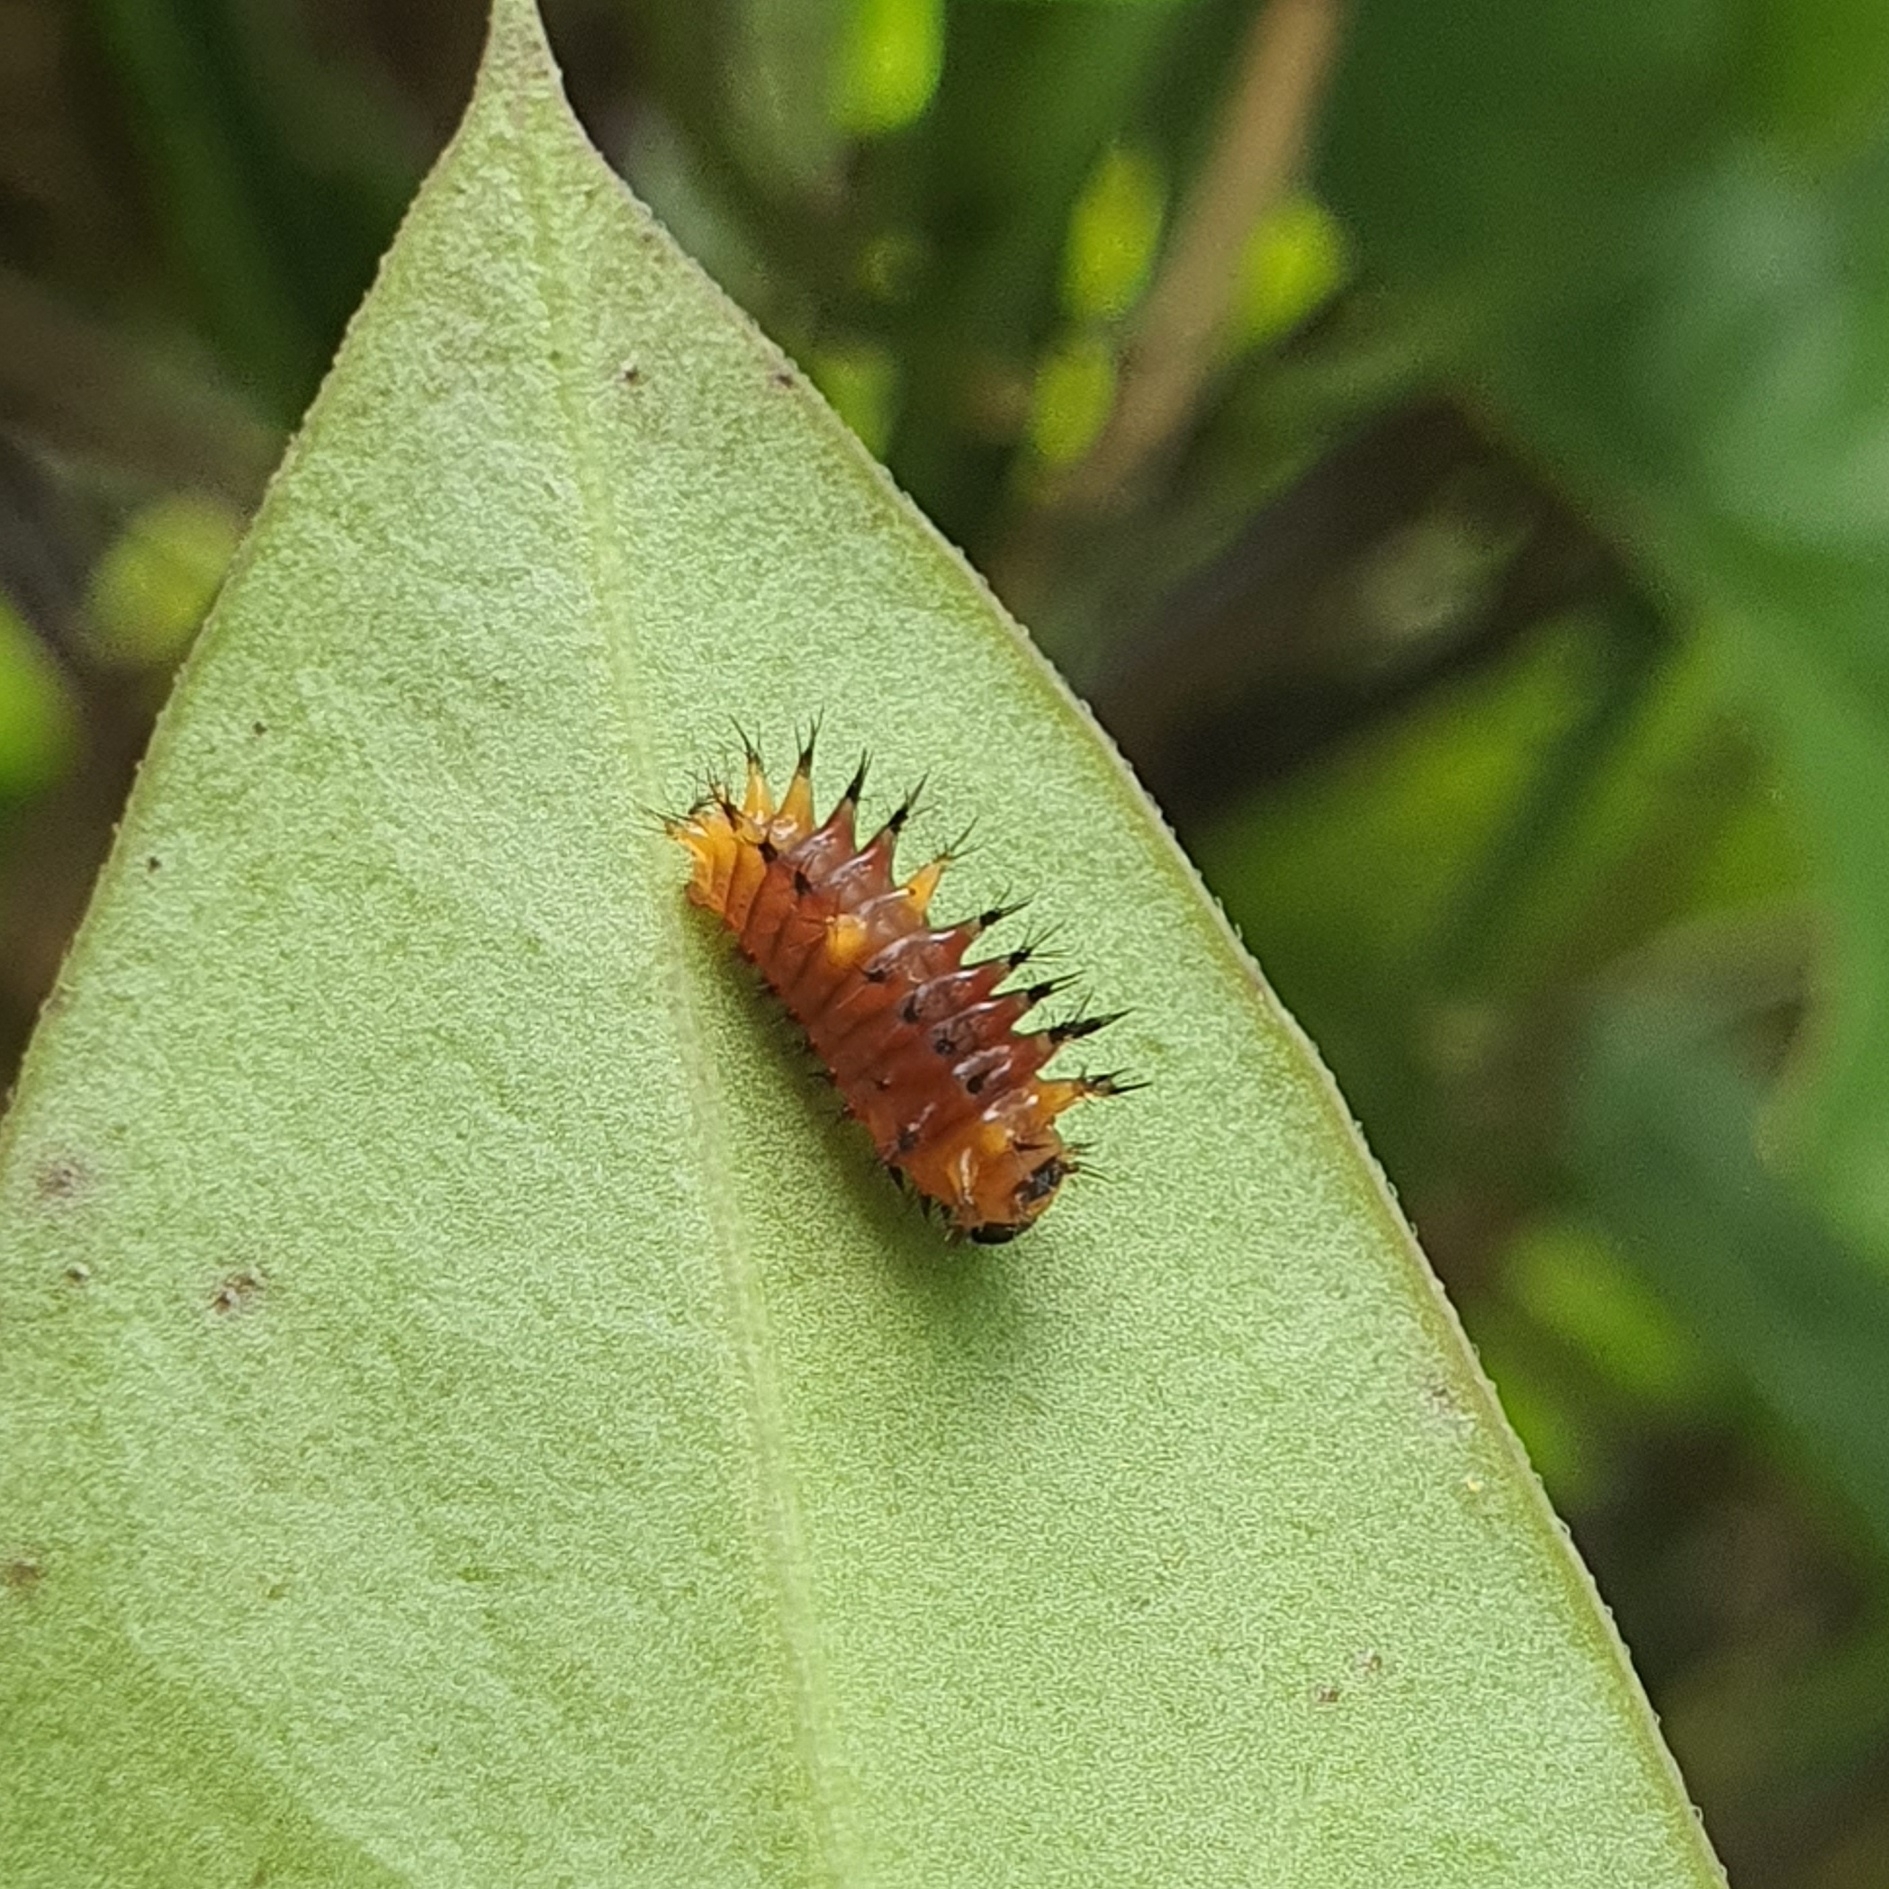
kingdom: Animalia
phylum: Arthropoda
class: Insecta
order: Lepidoptera
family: Papilionidae
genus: Troides
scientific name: Troides helena
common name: Common birdwing
